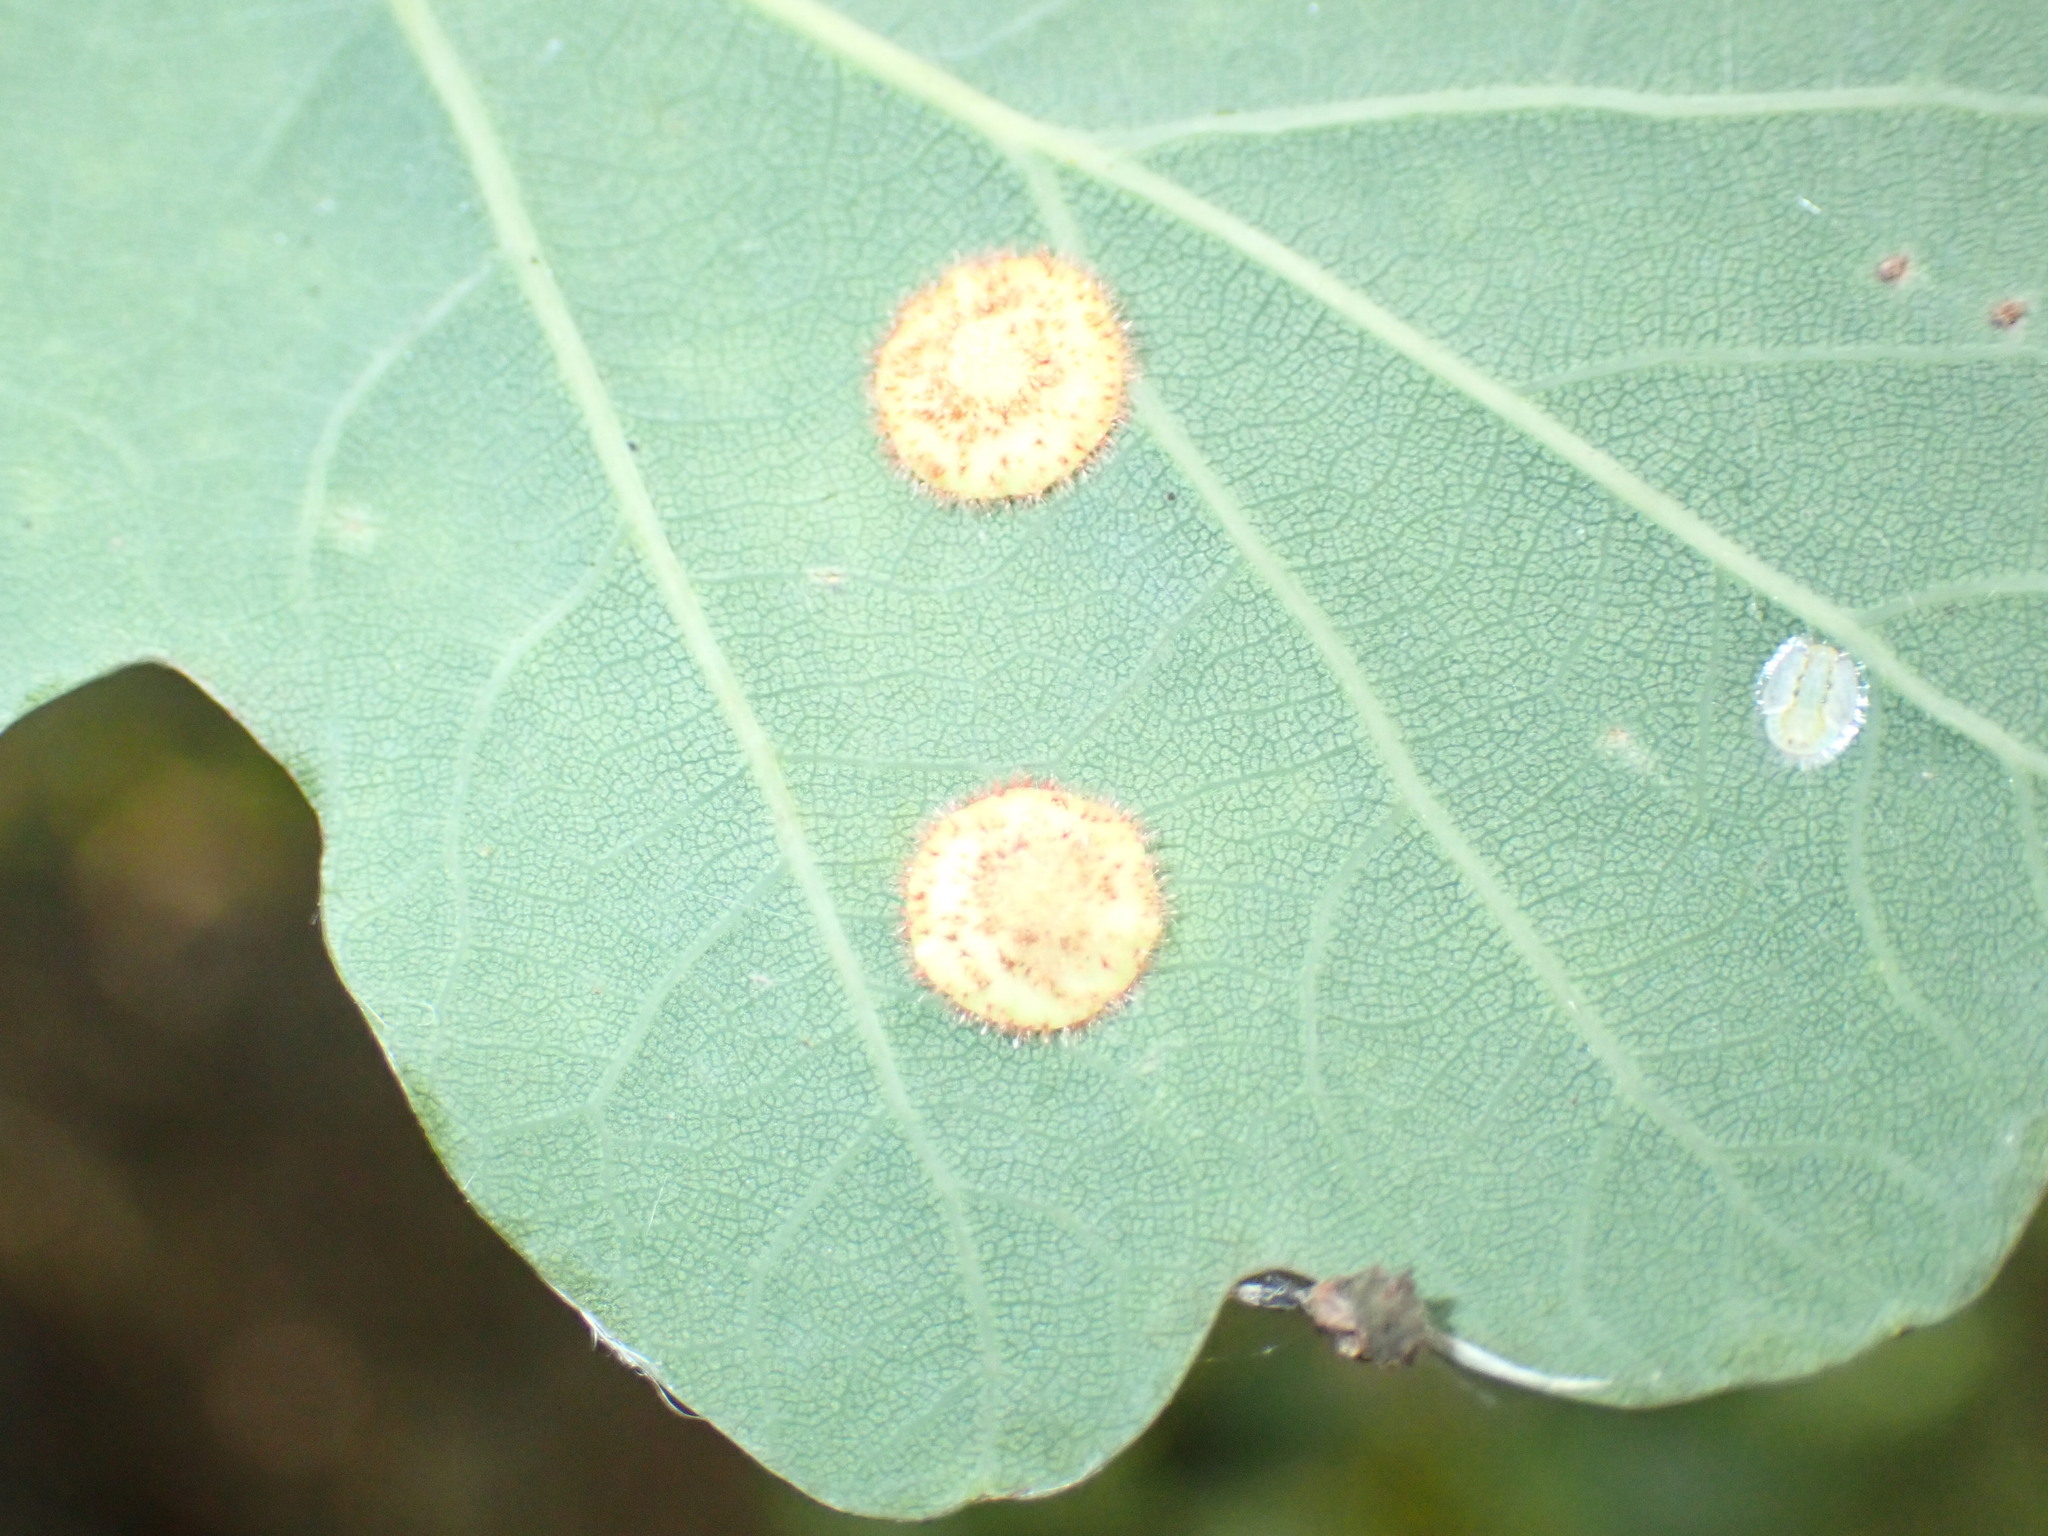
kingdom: Animalia
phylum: Arthropoda
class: Insecta
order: Hymenoptera
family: Cynipidae
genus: Neuroterus
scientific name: Neuroterus quercusbaccarum
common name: Common spangle gall
